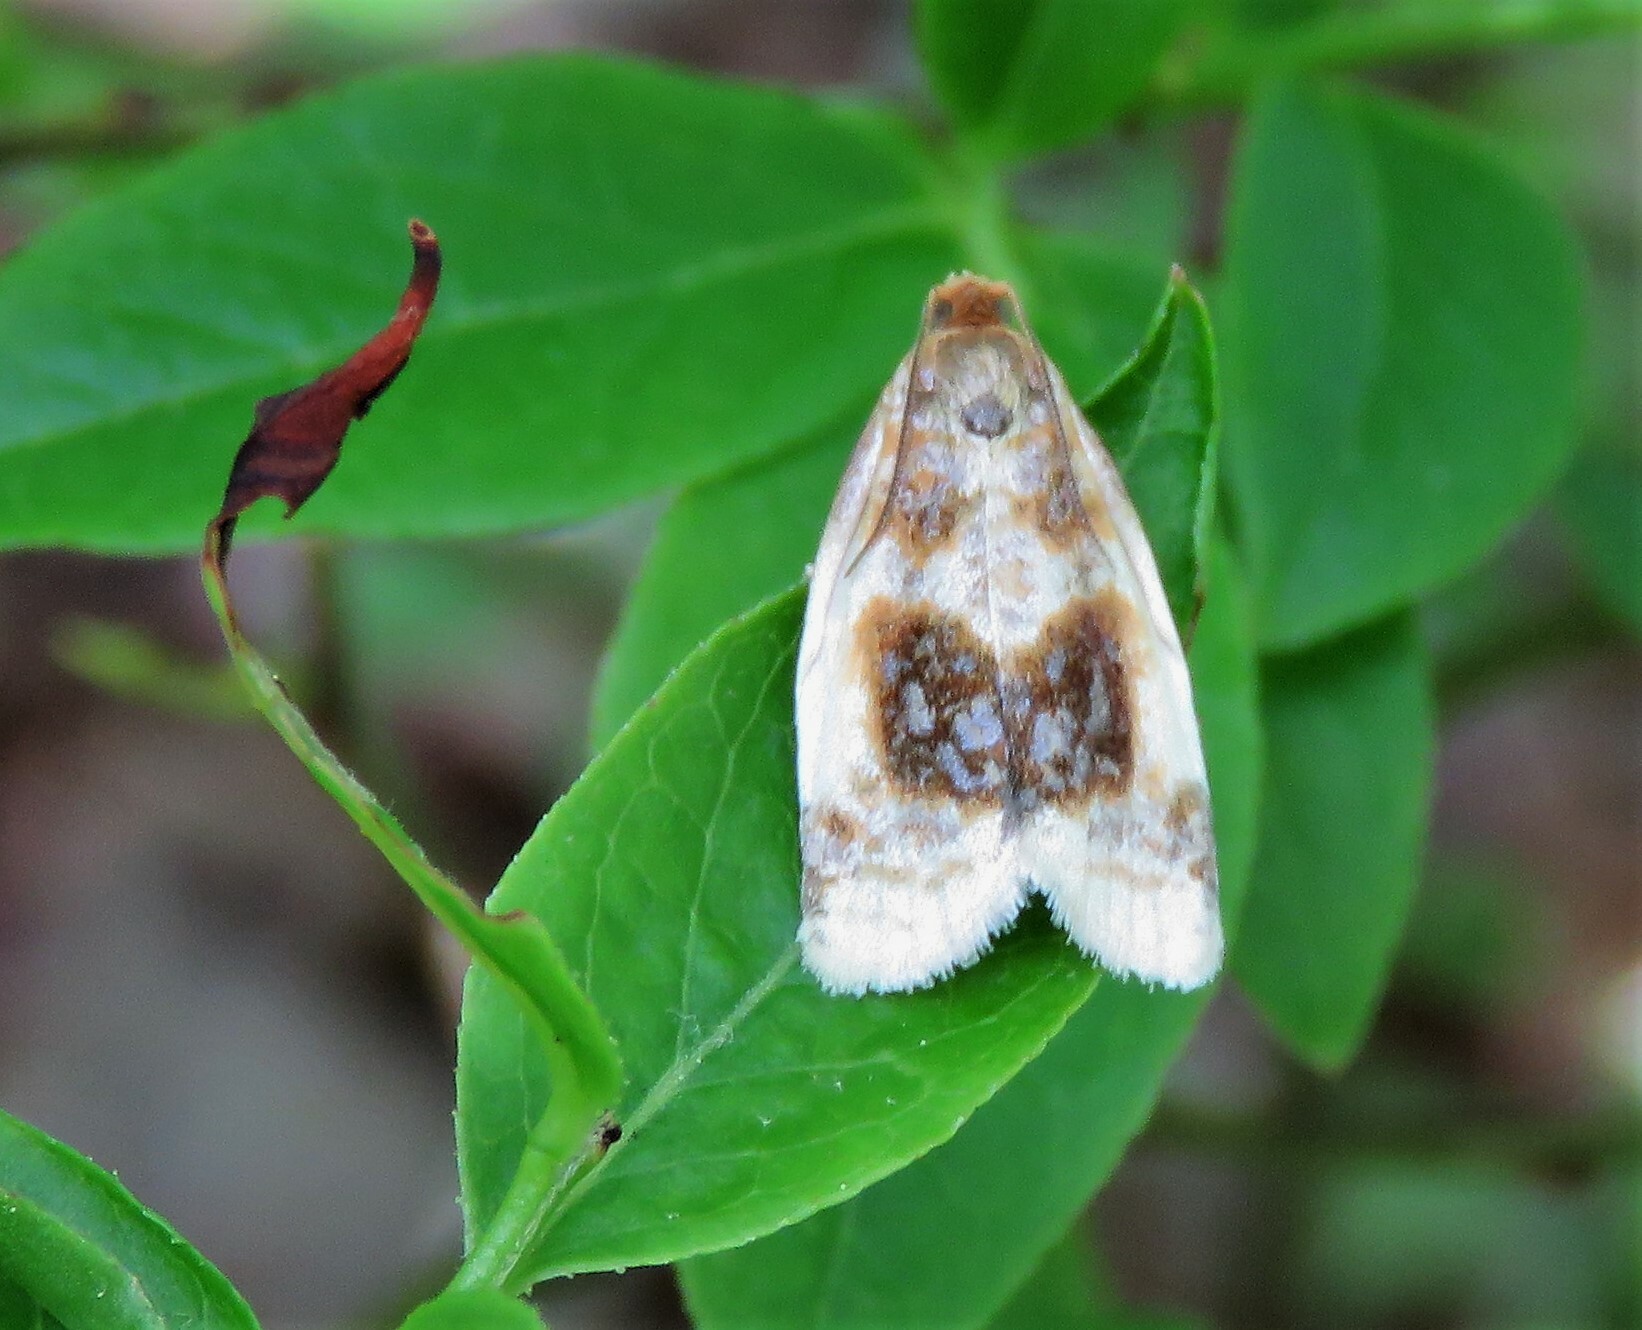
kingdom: Animalia
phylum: Arthropoda
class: Insecta
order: Lepidoptera
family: Tortricidae
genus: Clepsis
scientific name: Clepsis melaleucanus
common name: American apple tortrix
